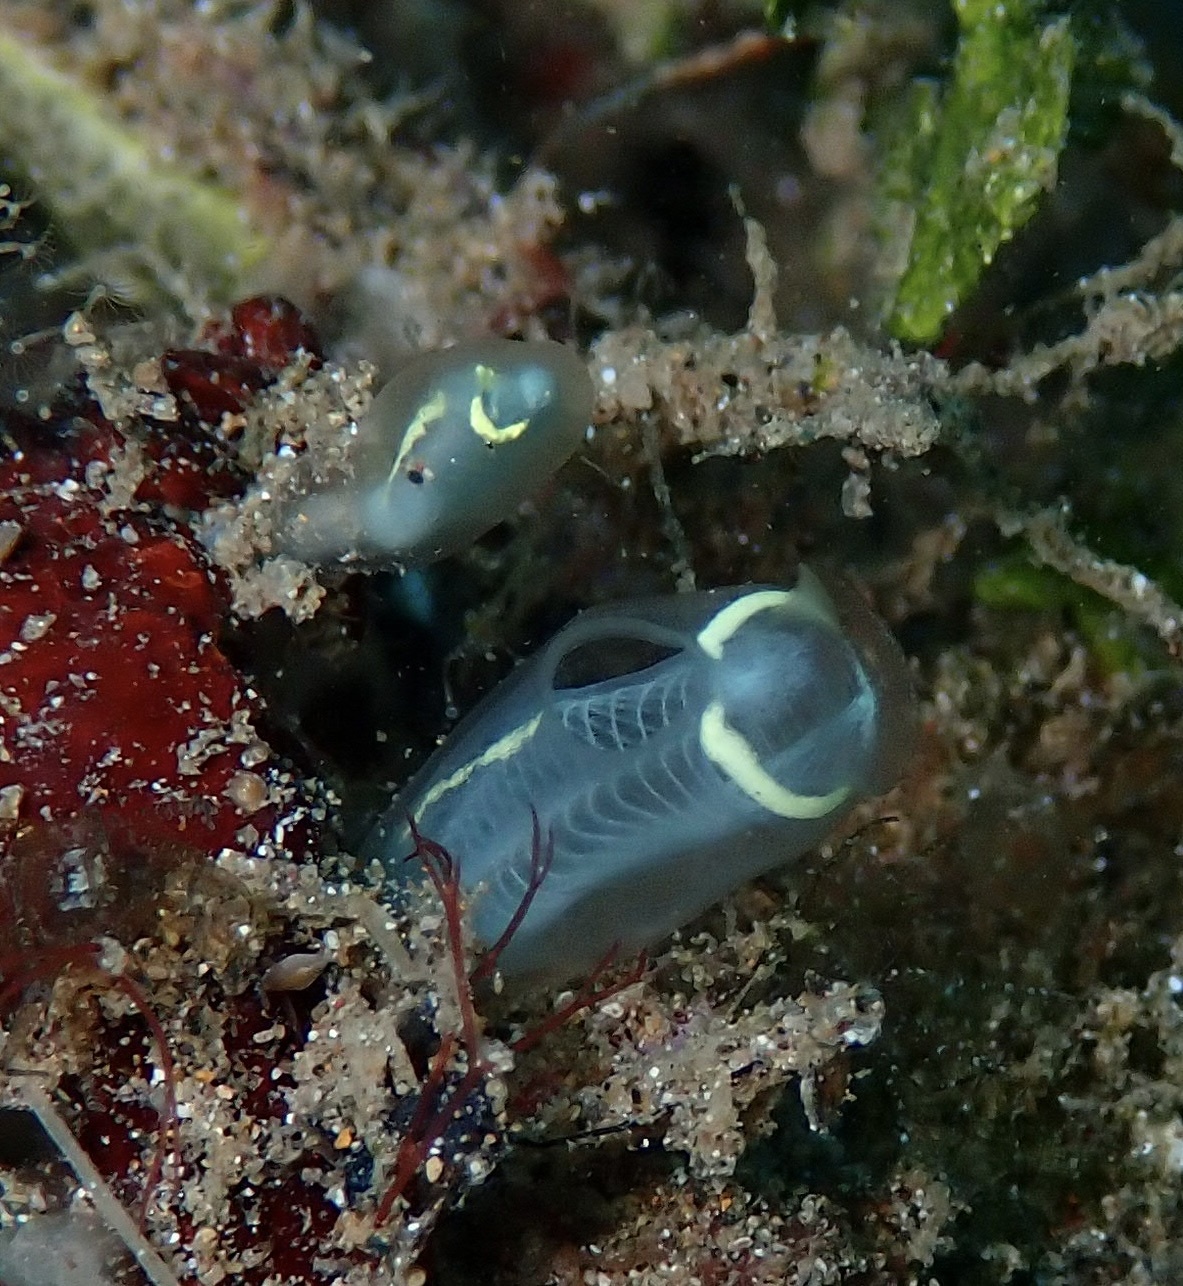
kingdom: Animalia
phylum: Chordata
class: Ascidiacea
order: Aplousobranchia
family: Clavelinidae
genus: Clavelina
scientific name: Clavelina cyclus
